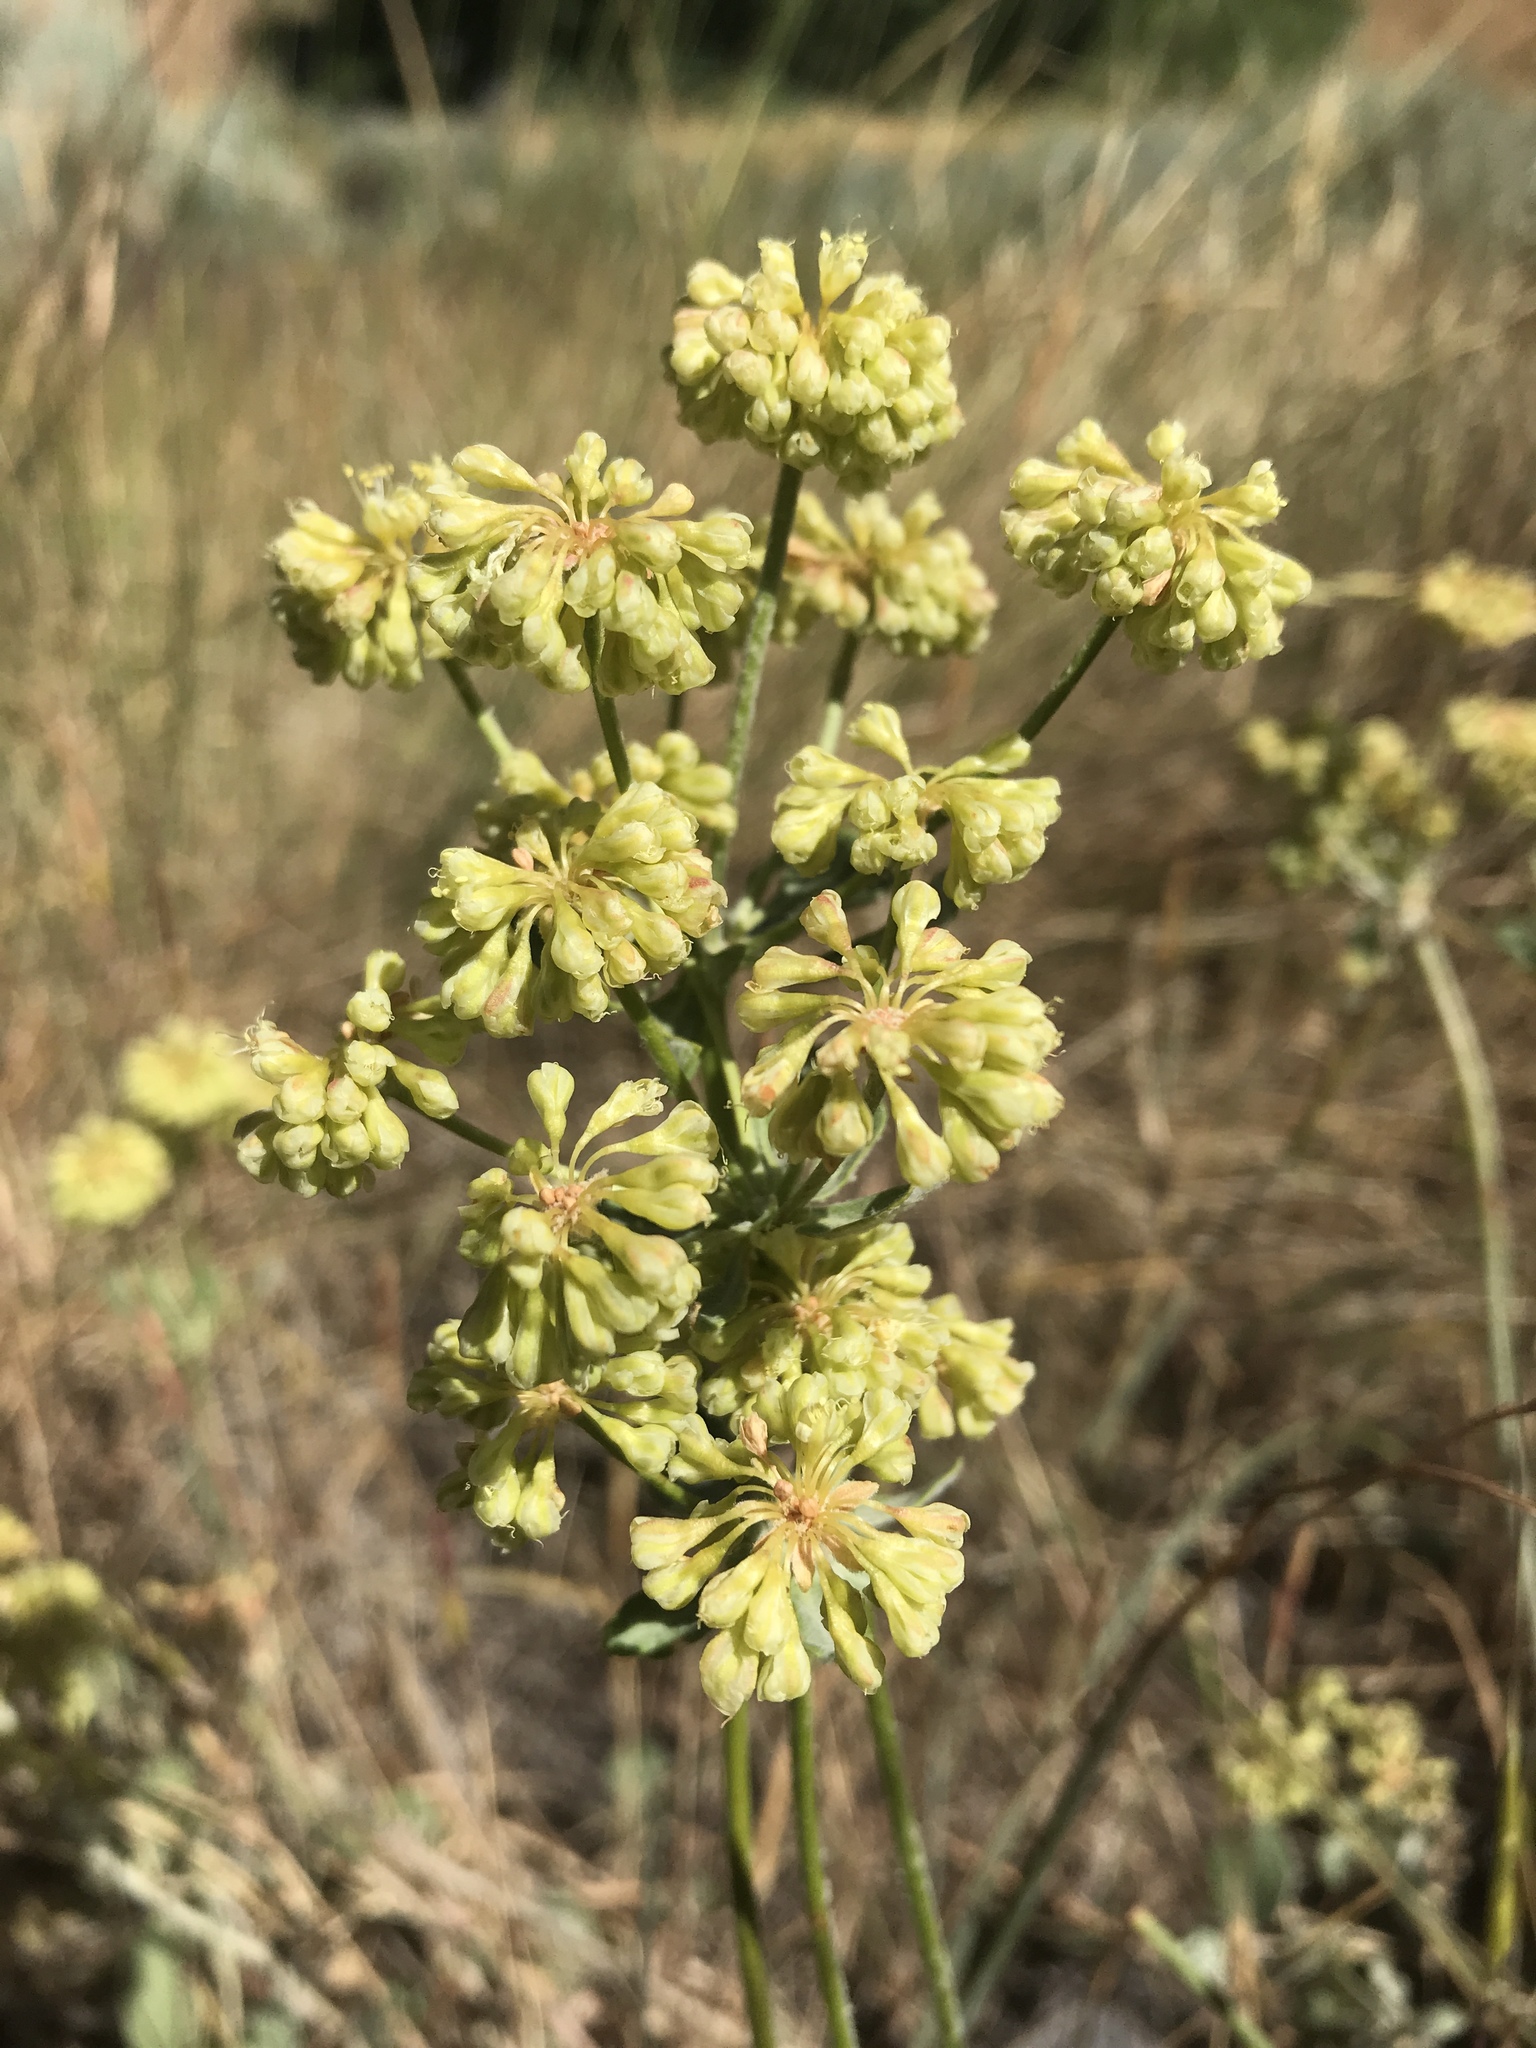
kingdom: Plantae
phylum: Tracheophyta
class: Magnoliopsida
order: Caryophyllales
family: Polygonaceae
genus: Eriogonum
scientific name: Eriogonum umbellatum
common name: Sulfur-buckwheat
